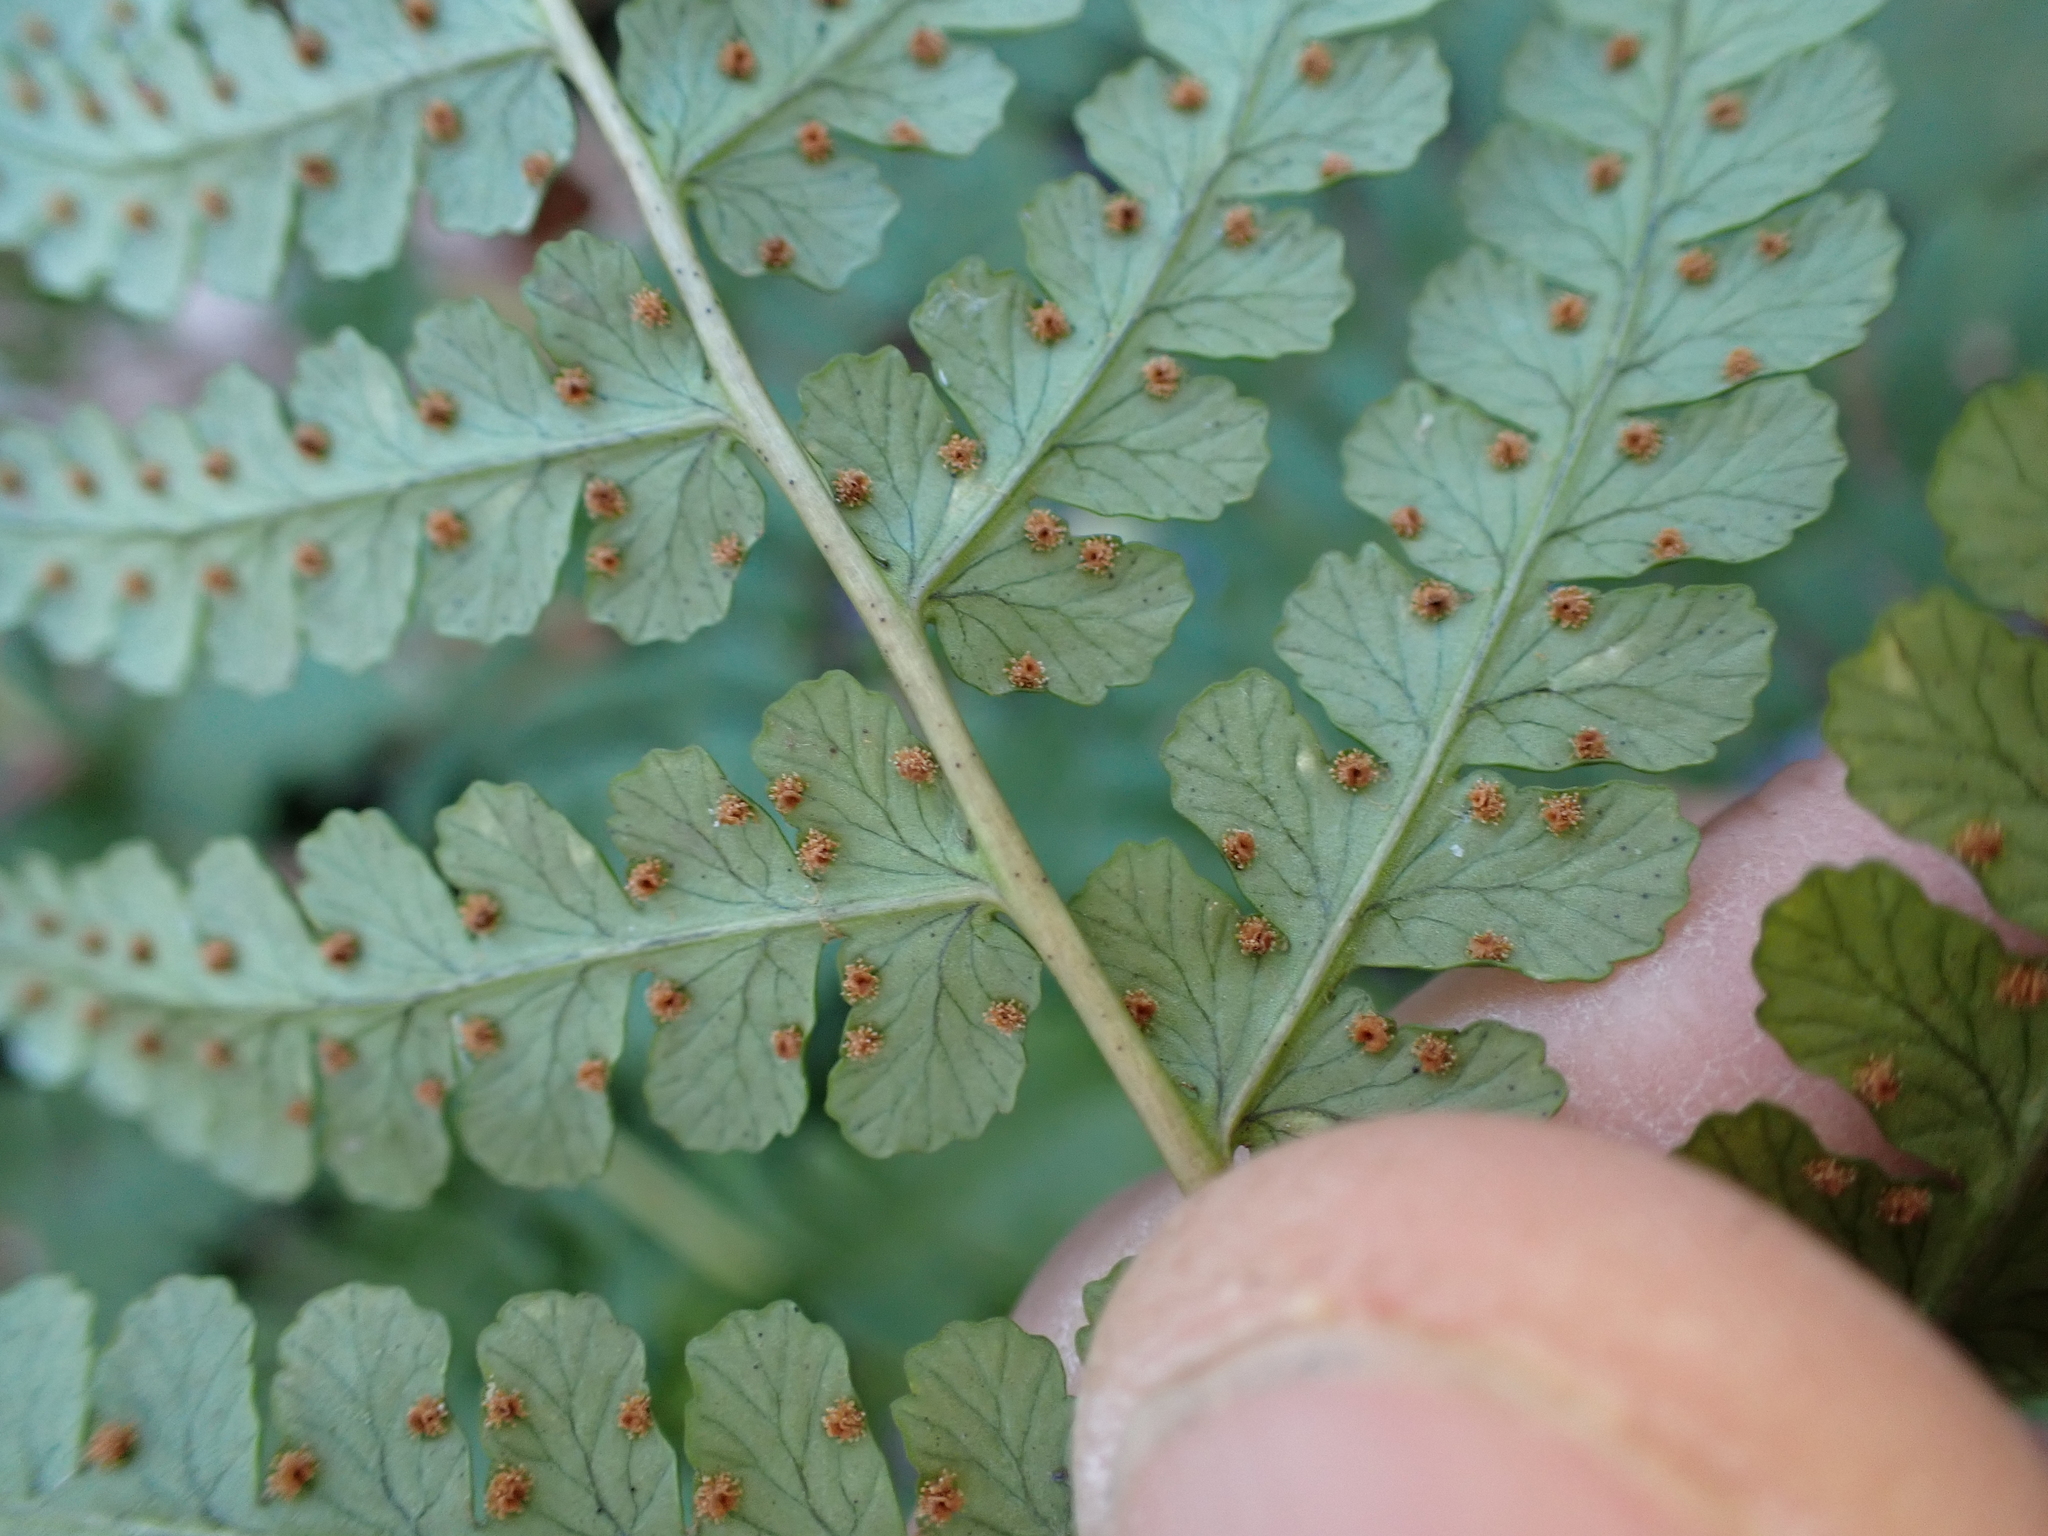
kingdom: Plantae
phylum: Tracheophyta
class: Polypodiopsida
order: Polypodiales
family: Dryopteridaceae
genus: Dryopteris
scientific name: Dryopteris marginalis
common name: Marginal wood fern
